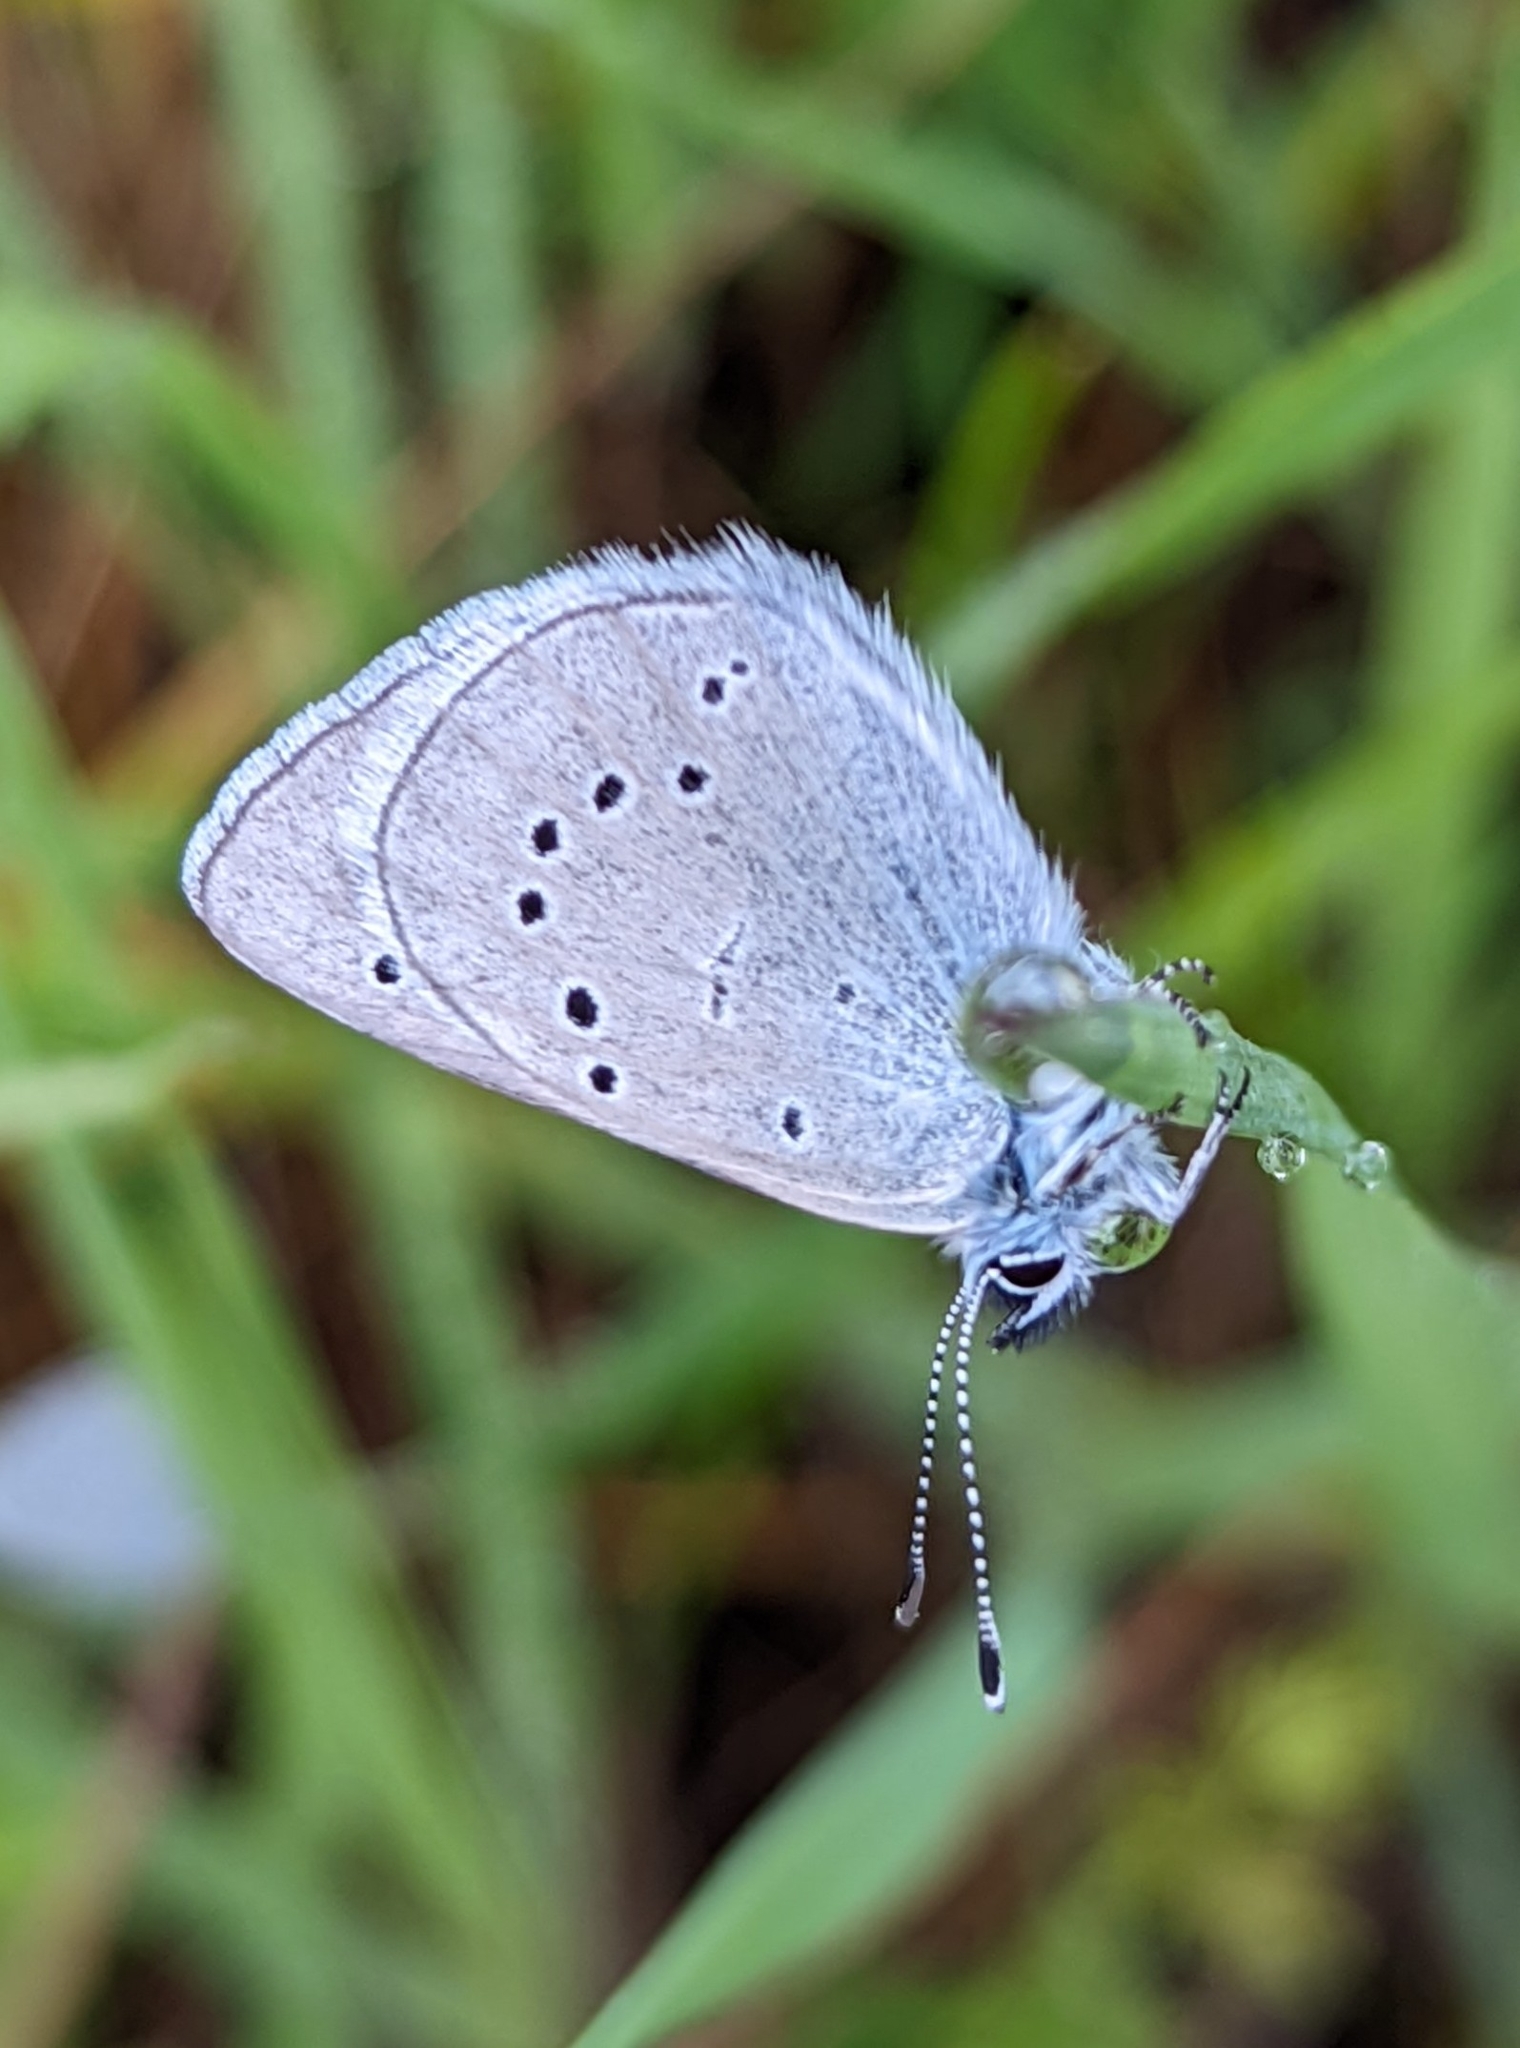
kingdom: Animalia
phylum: Arthropoda
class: Insecta
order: Lepidoptera
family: Lycaenidae
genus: Glaucopsyche
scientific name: Glaucopsyche lygdamus
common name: Silvery blue
